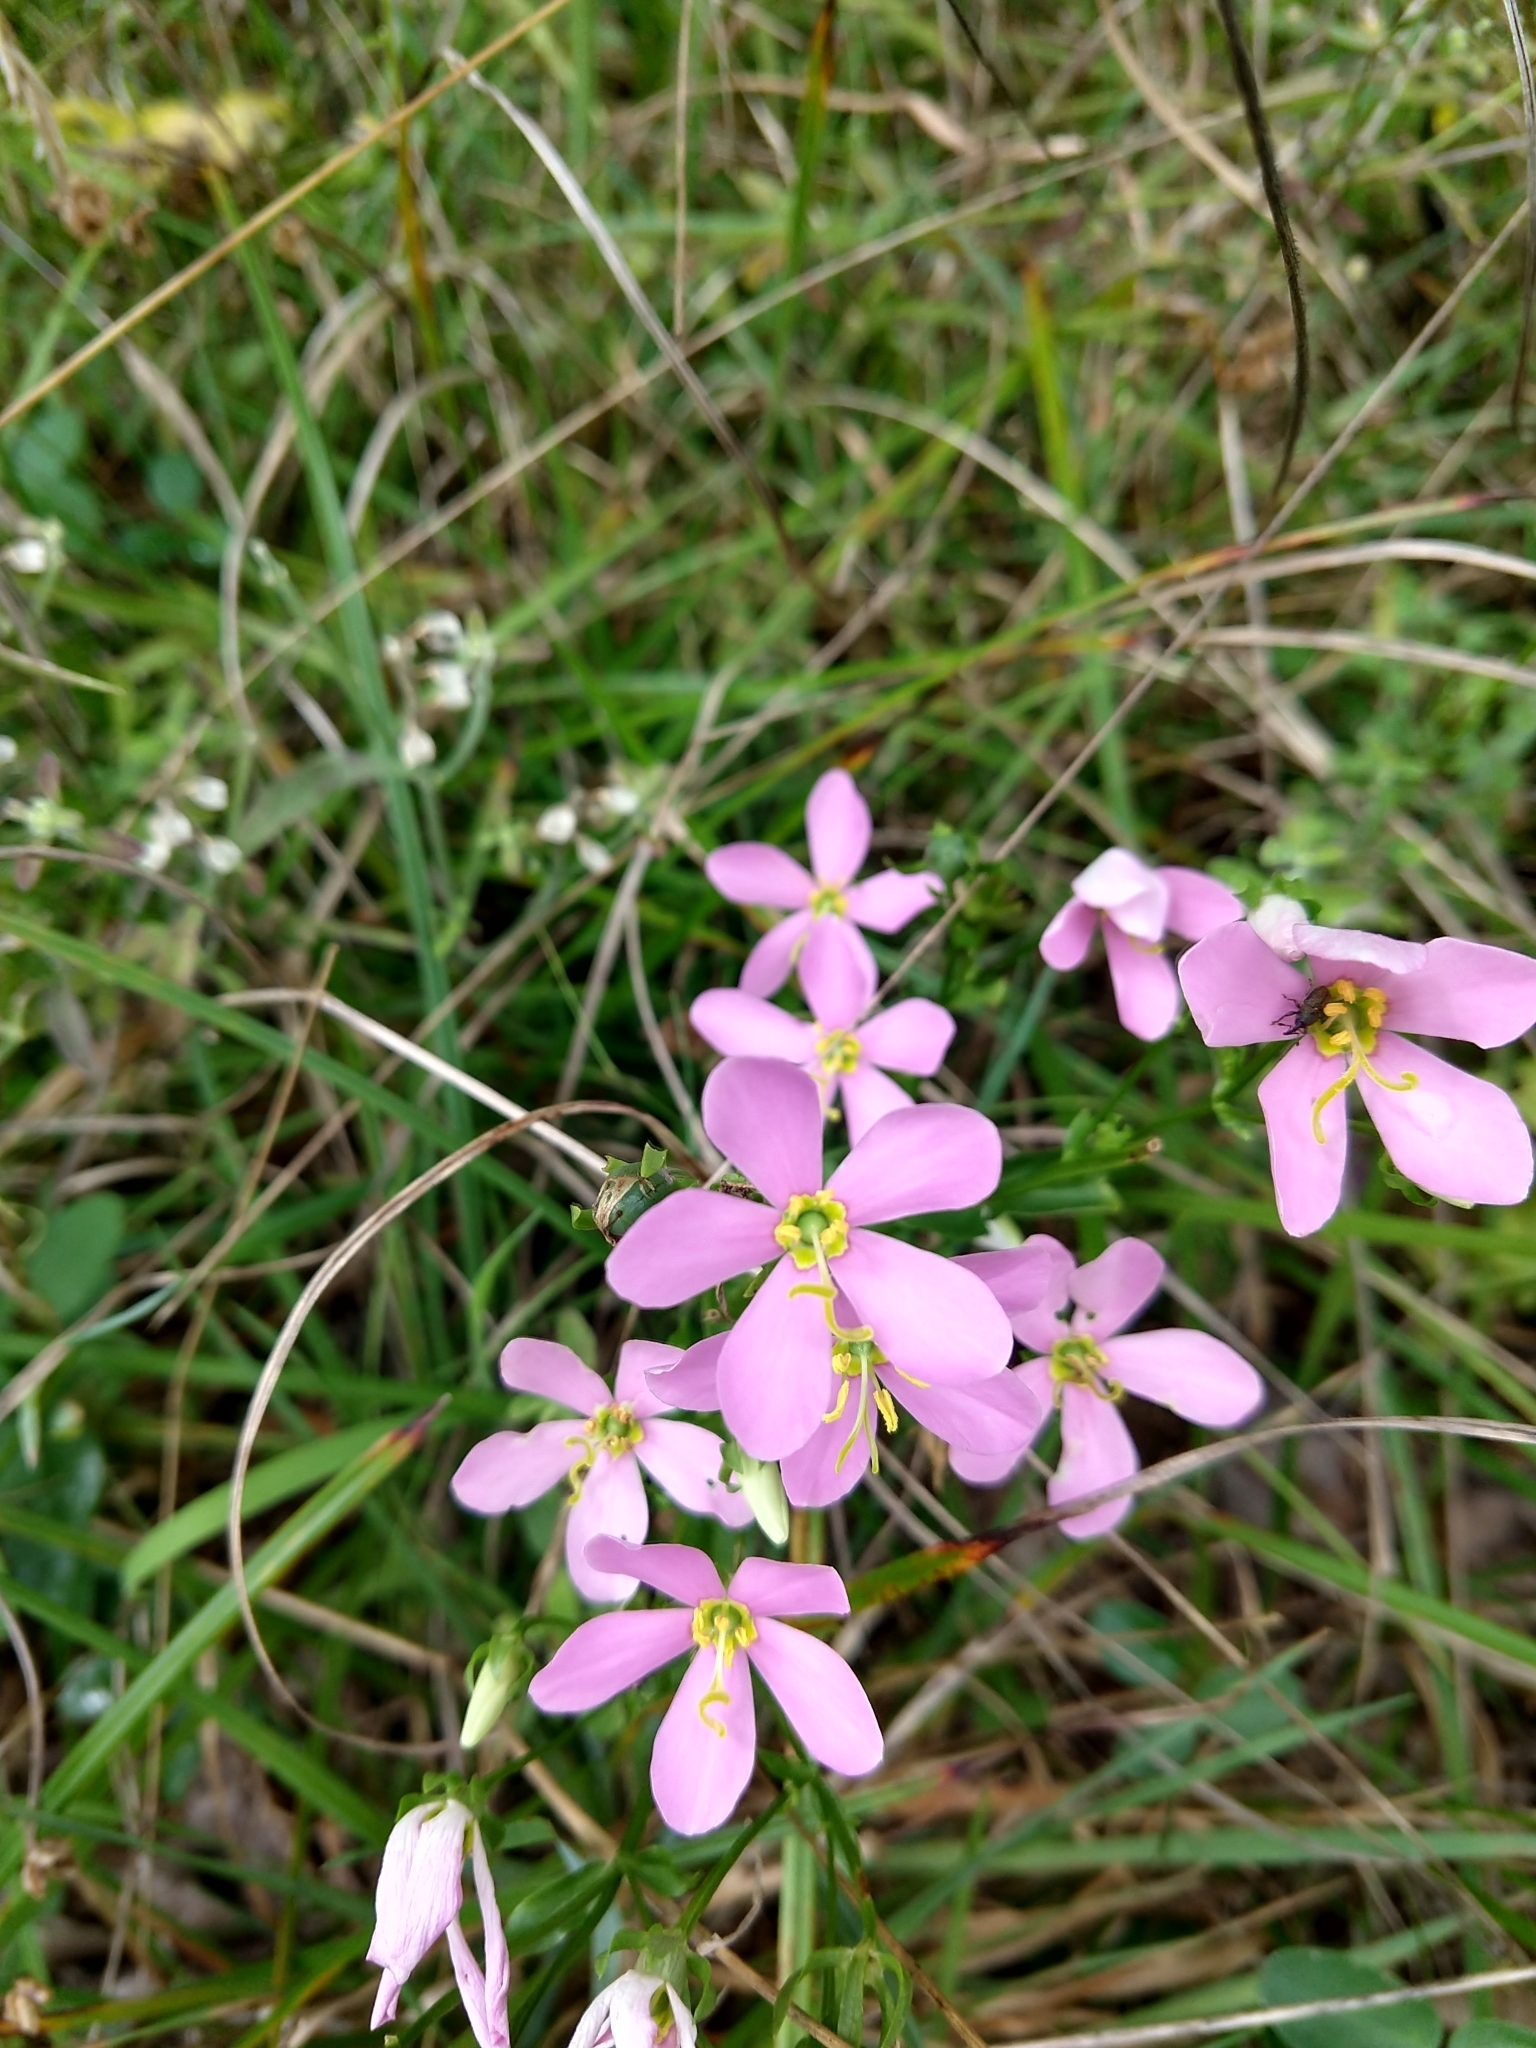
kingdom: Plantae
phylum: Tracheophyta
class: Magnoliopsida
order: Gentianales
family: Gentianaceae
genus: Sabatia
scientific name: Sabatia angularis
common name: Rose-pink
